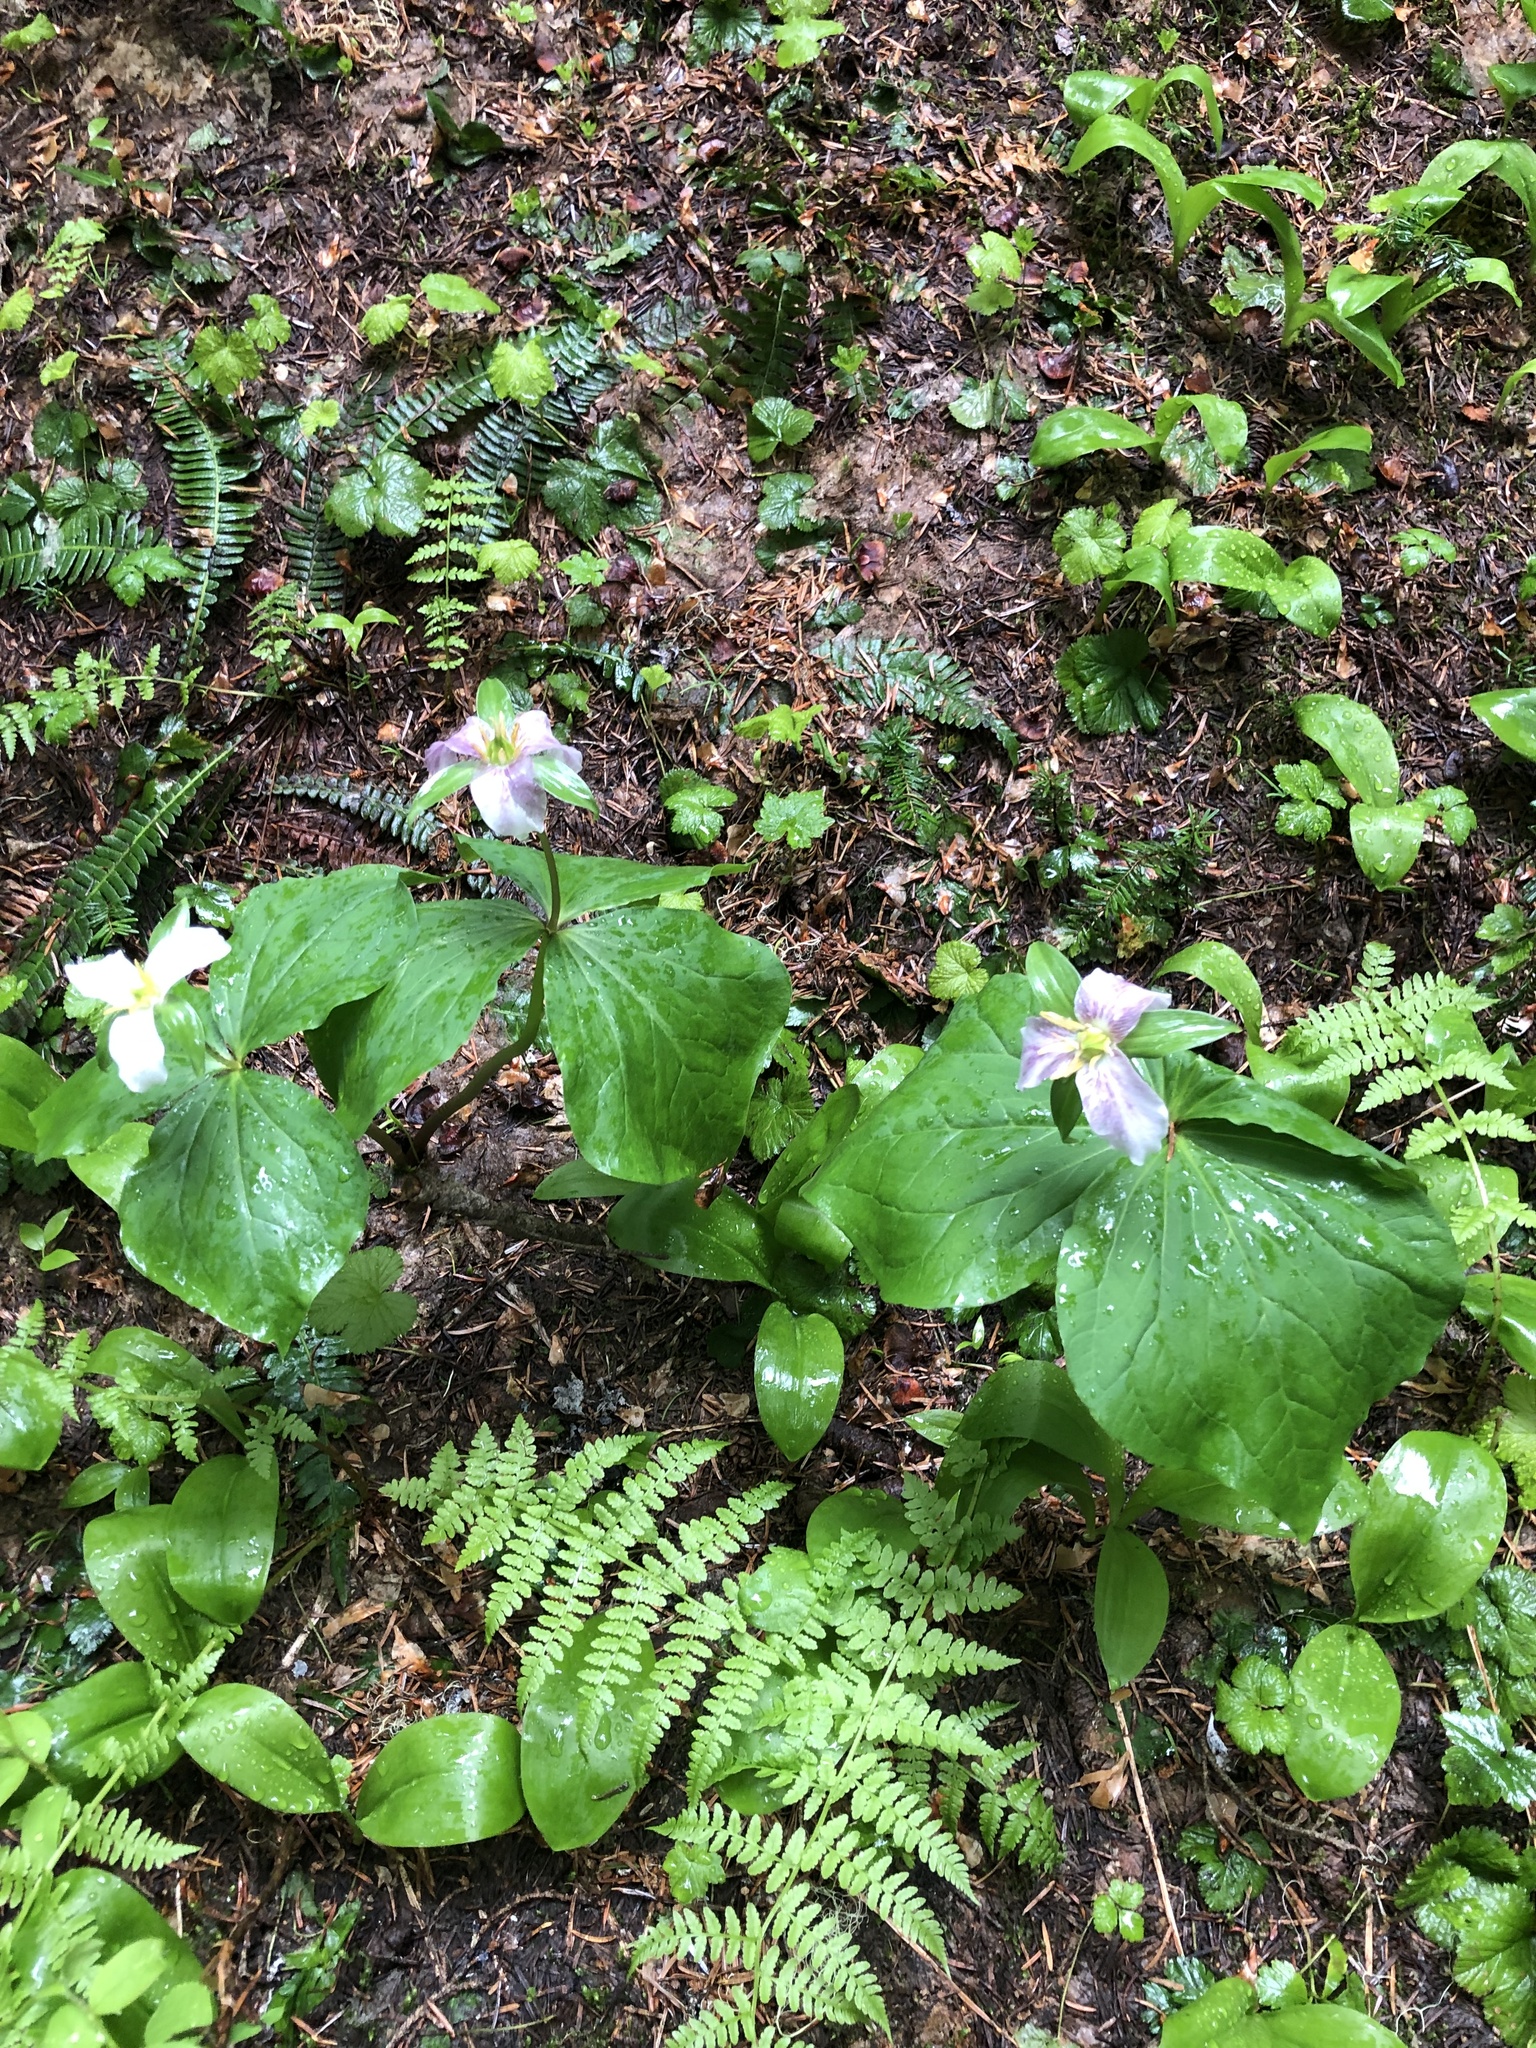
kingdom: Plantae
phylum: Tracheophyta
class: Liliopsida
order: Liliales
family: Melanthiaceae
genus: Trillium
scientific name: Trillium ovatum
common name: Pacific trillium
